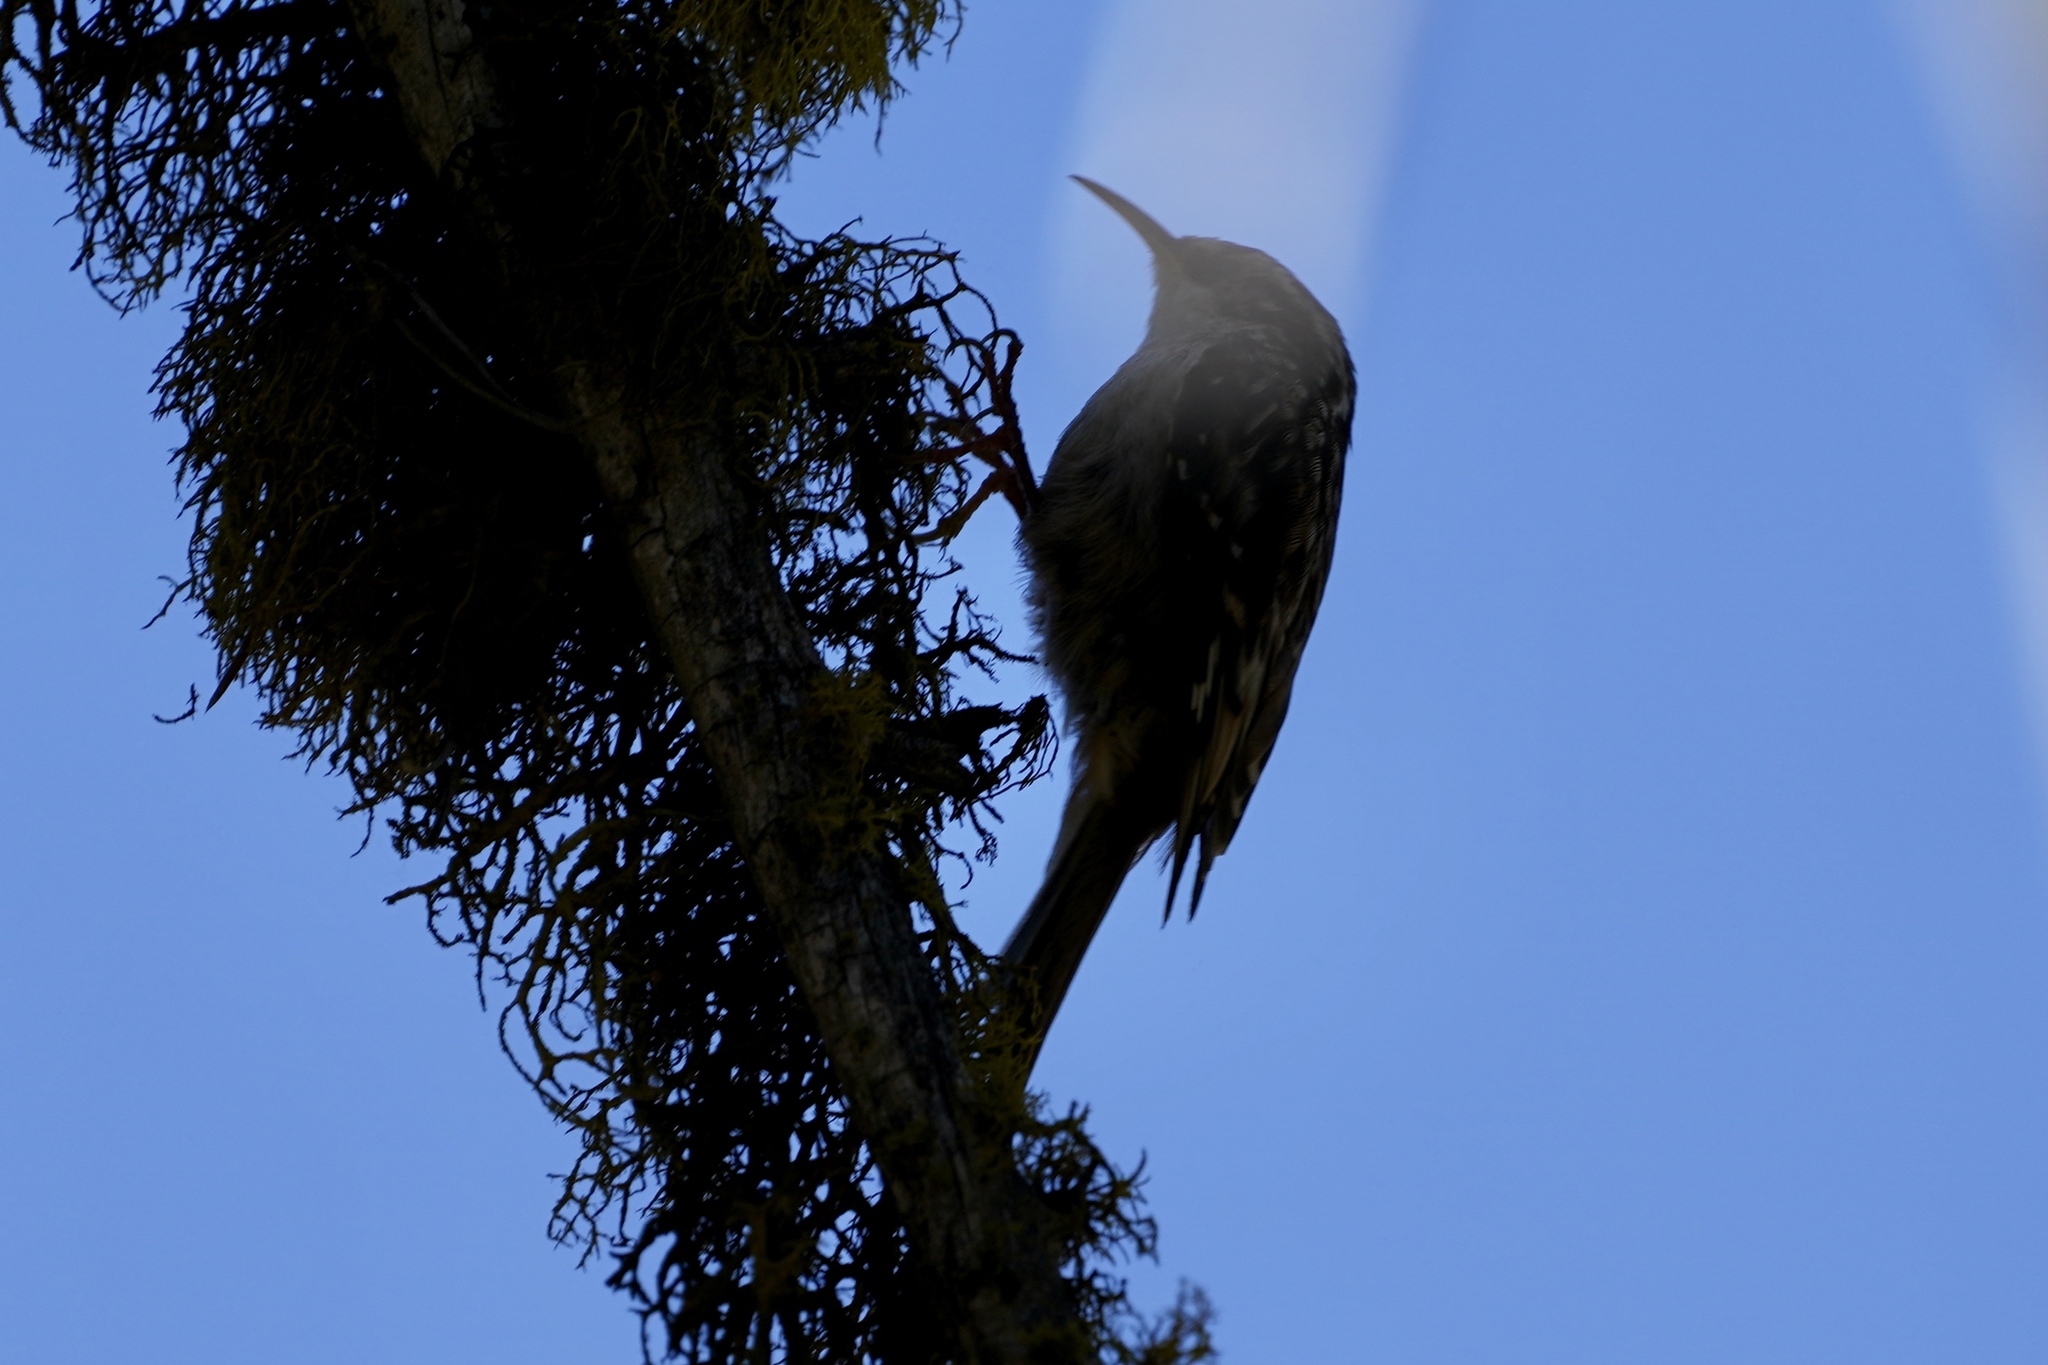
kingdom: Animalia
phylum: Chordata
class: Aves
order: Passeriformes
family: Certhiidae
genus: Certhia
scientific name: Certhia americana
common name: Brown creeper
